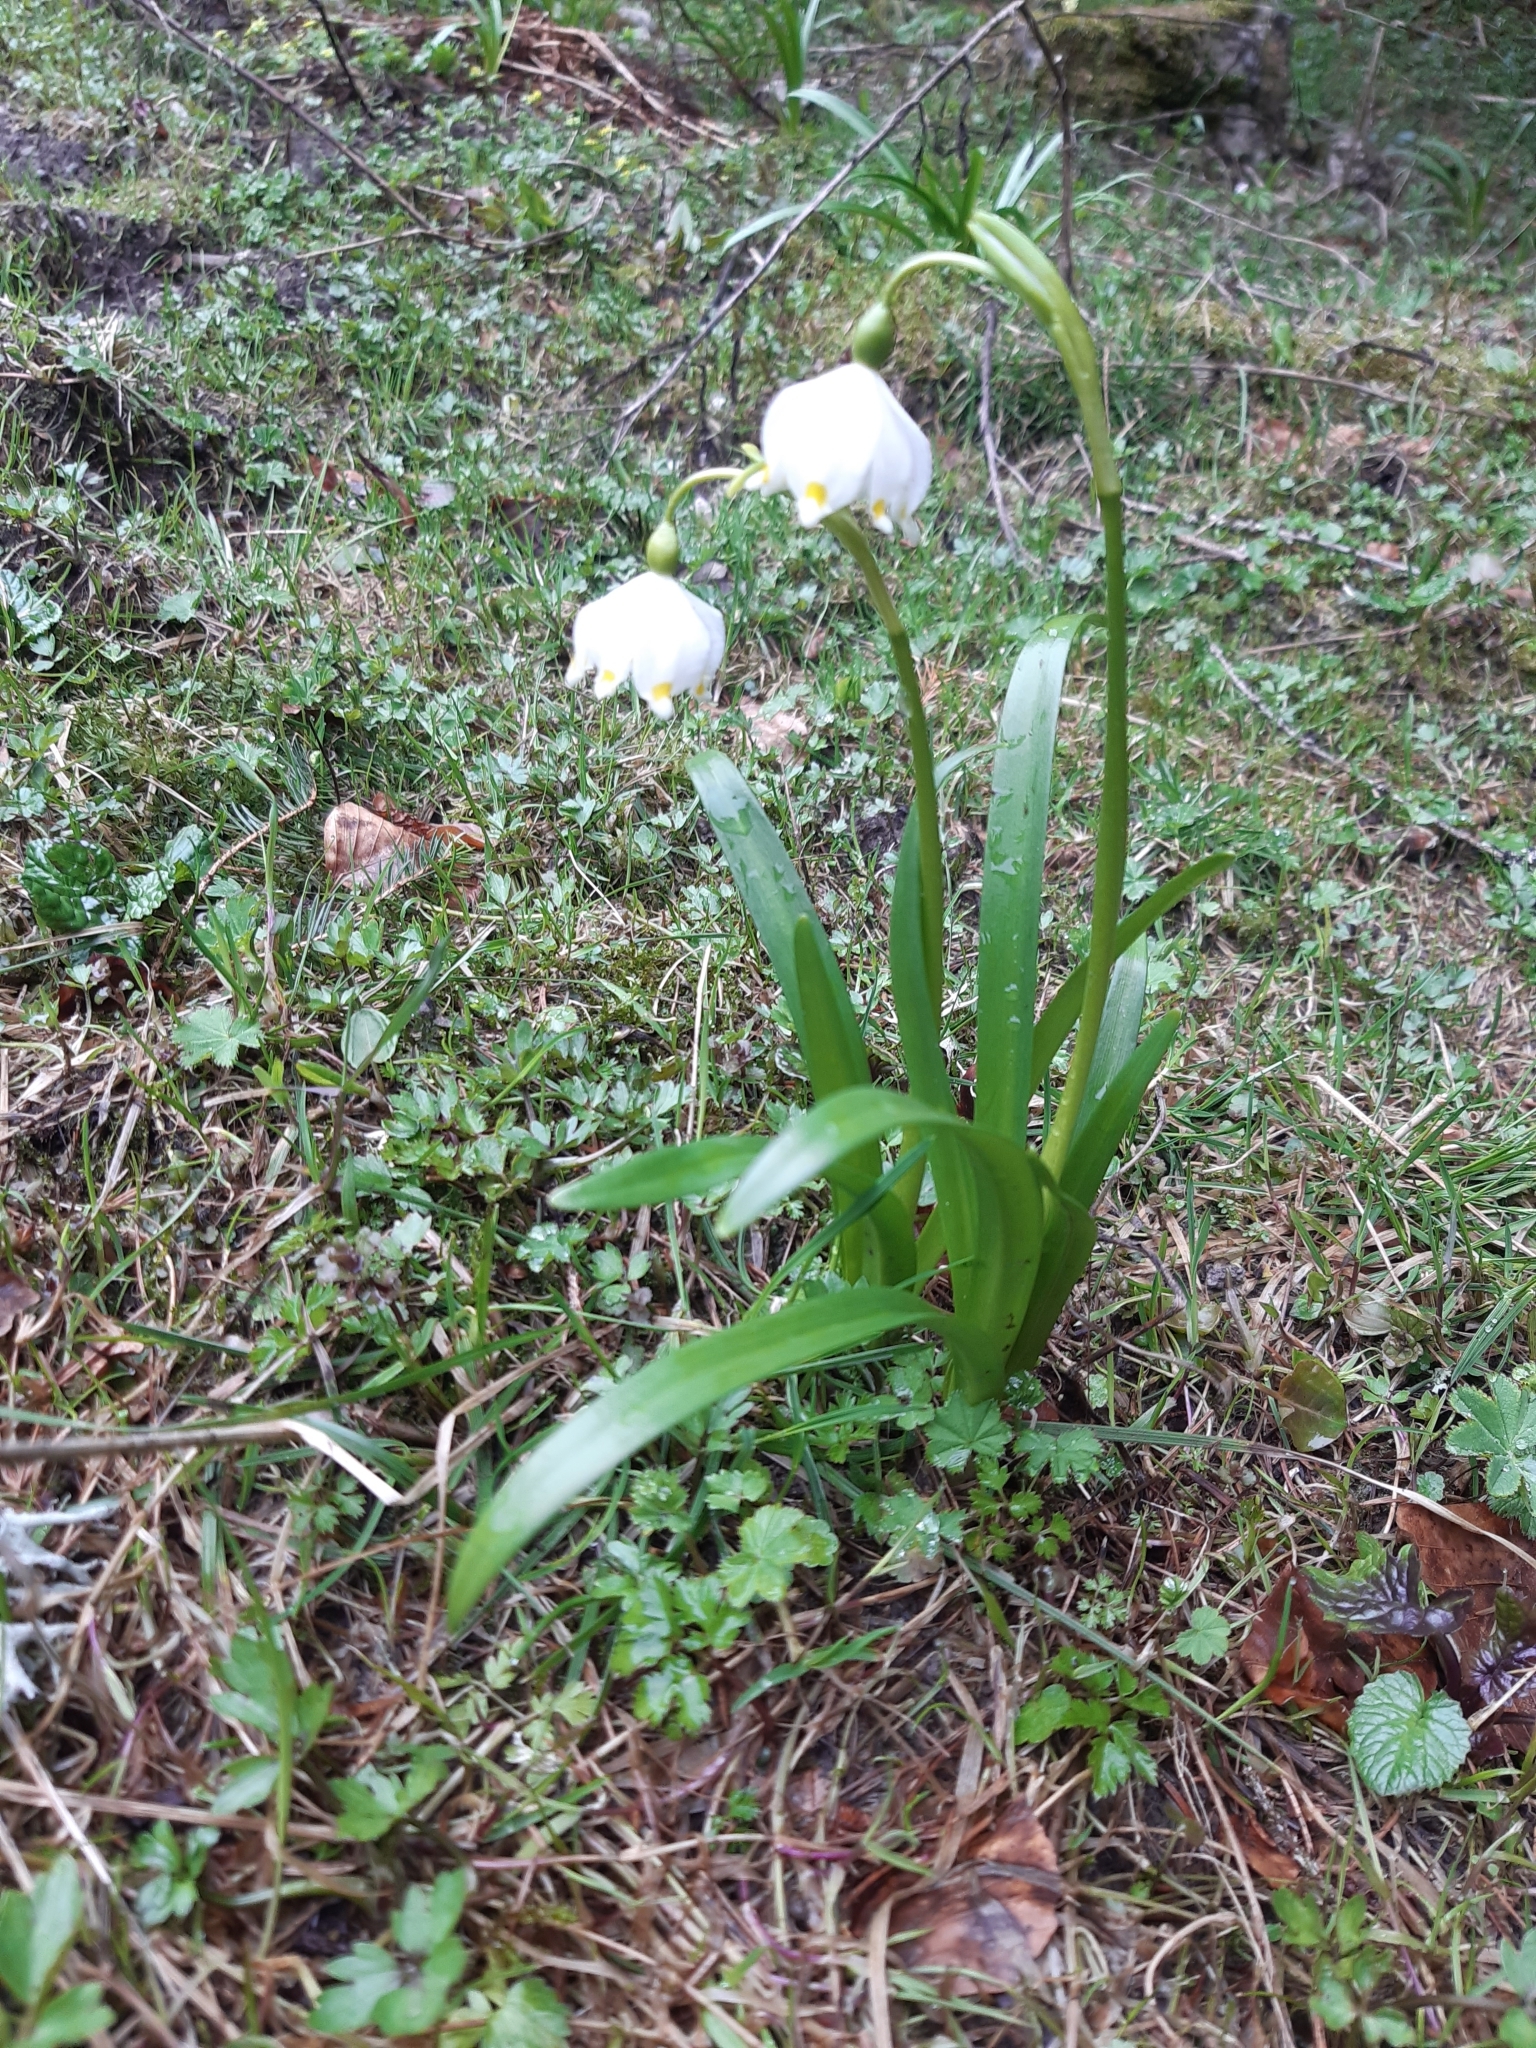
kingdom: Plantae
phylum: Tracheophyta
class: Liliopsida
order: Asparagales
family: Amaryllidaceae
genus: Leucojum
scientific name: Leucojum vernum
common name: Spring snowflake
